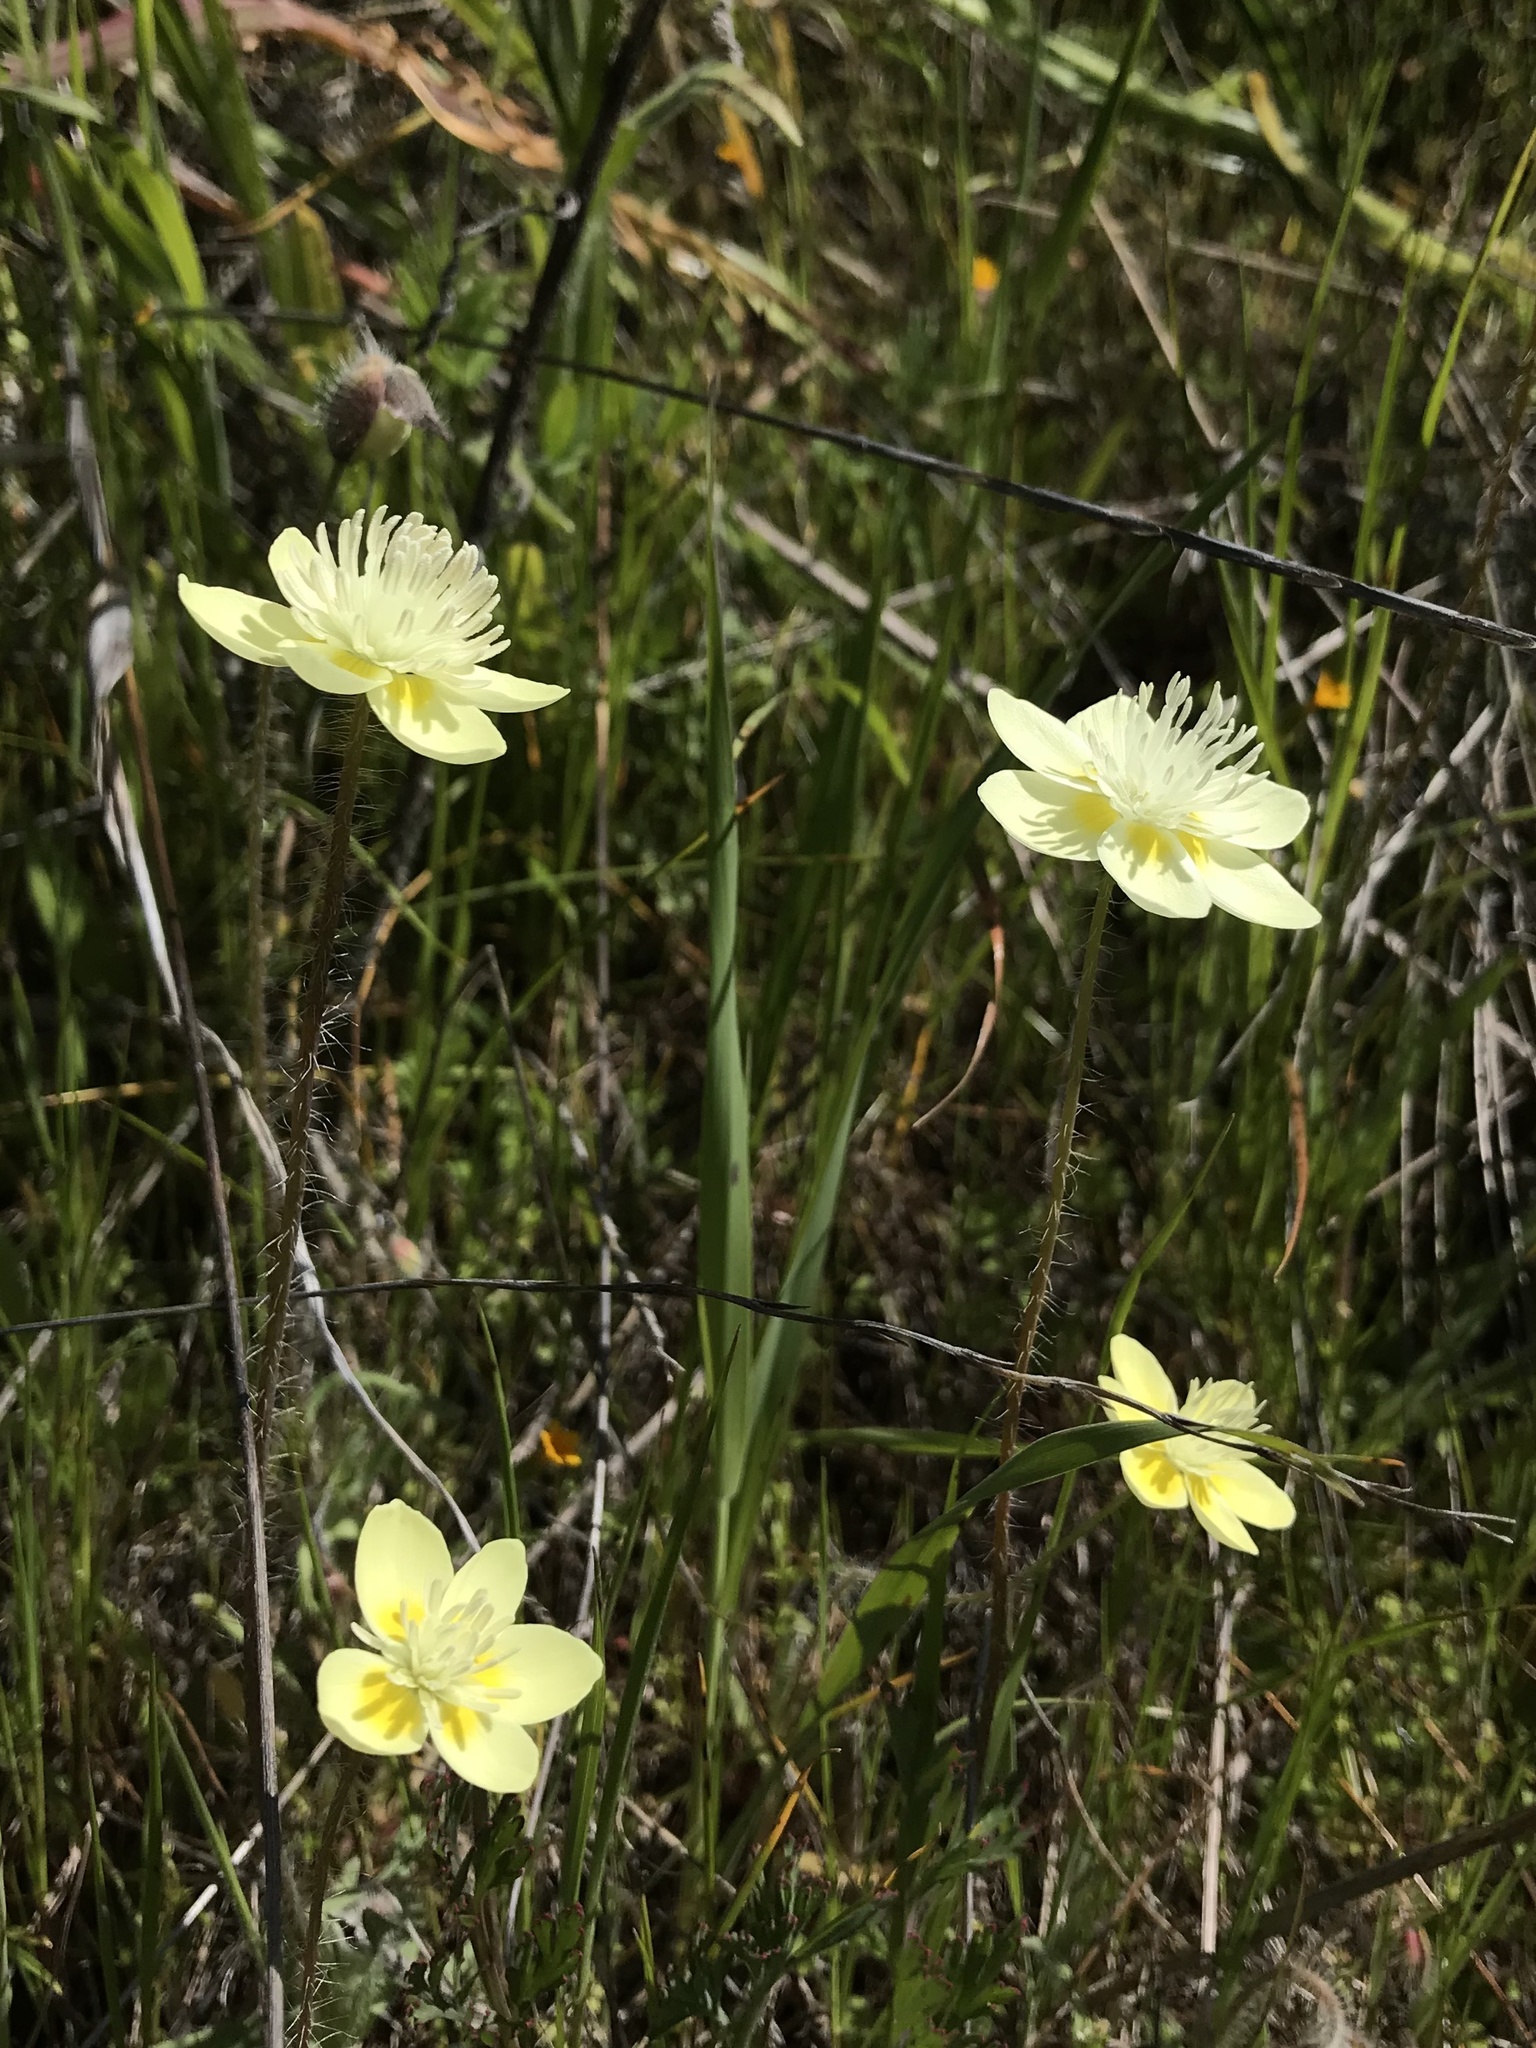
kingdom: Plantae
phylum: Tracheophyta
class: Magnoliopsida
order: Ranunculales
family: Papaveraceae
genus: Platystemon
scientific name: Platystemon californicus
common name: Cream-cups
